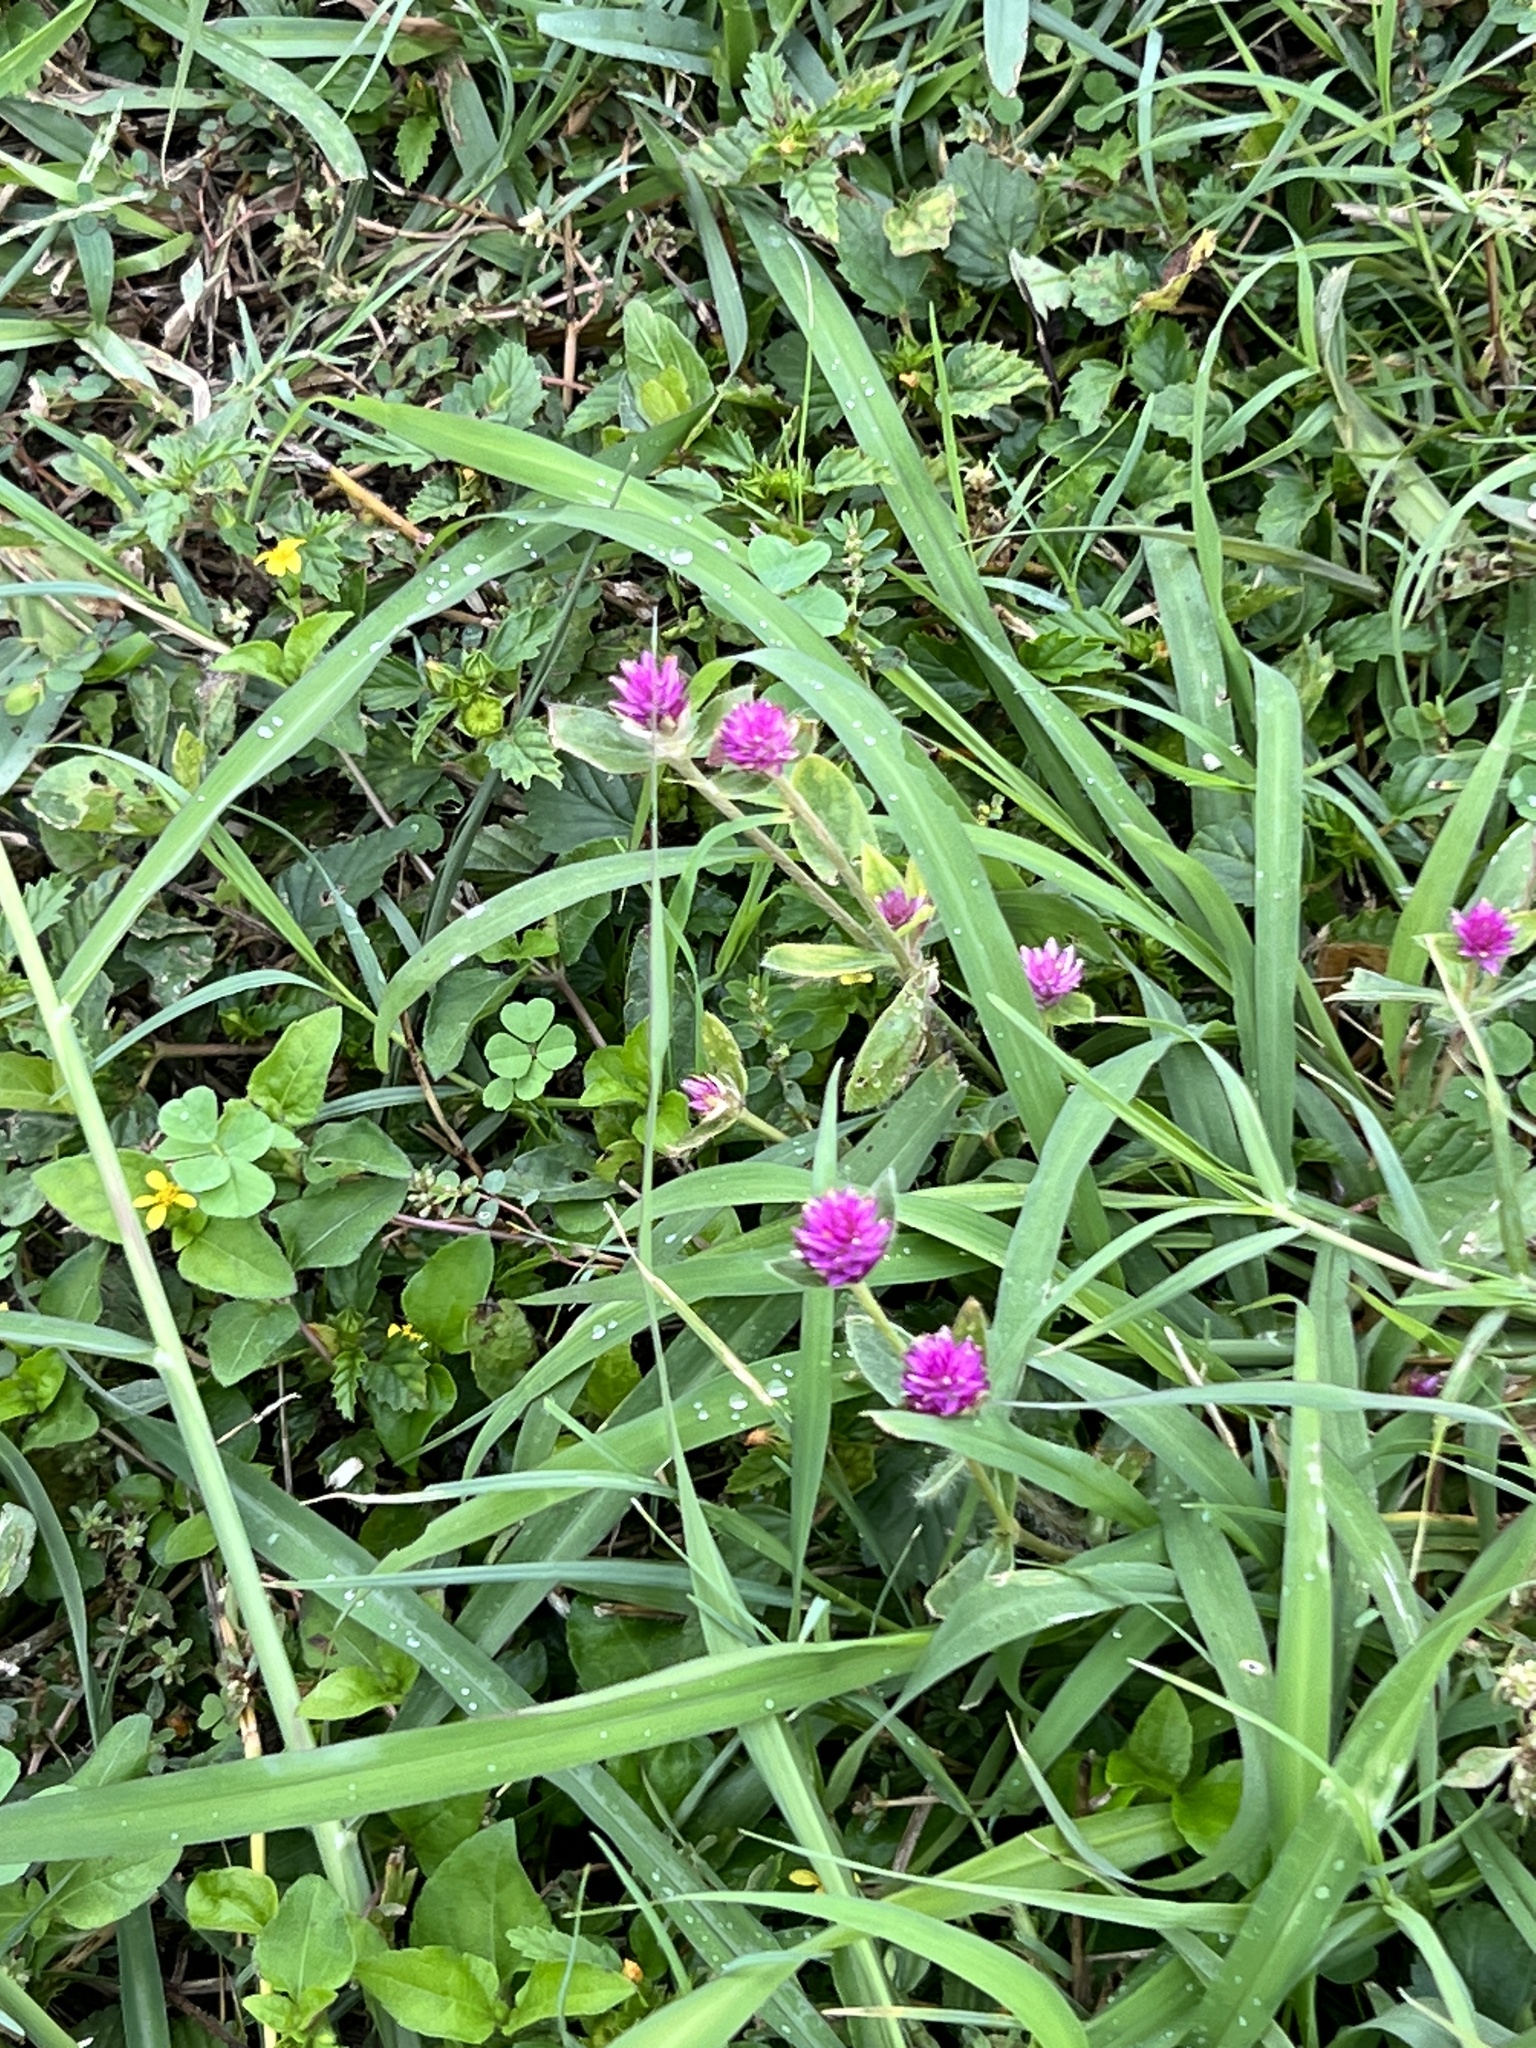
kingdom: Plantae
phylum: Tracheophyta
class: Magnoliopsida
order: Caryophyllales
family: Amaranthaceae
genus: Gomphrena
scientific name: Gomphrena serrata
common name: Arrasa con todo
